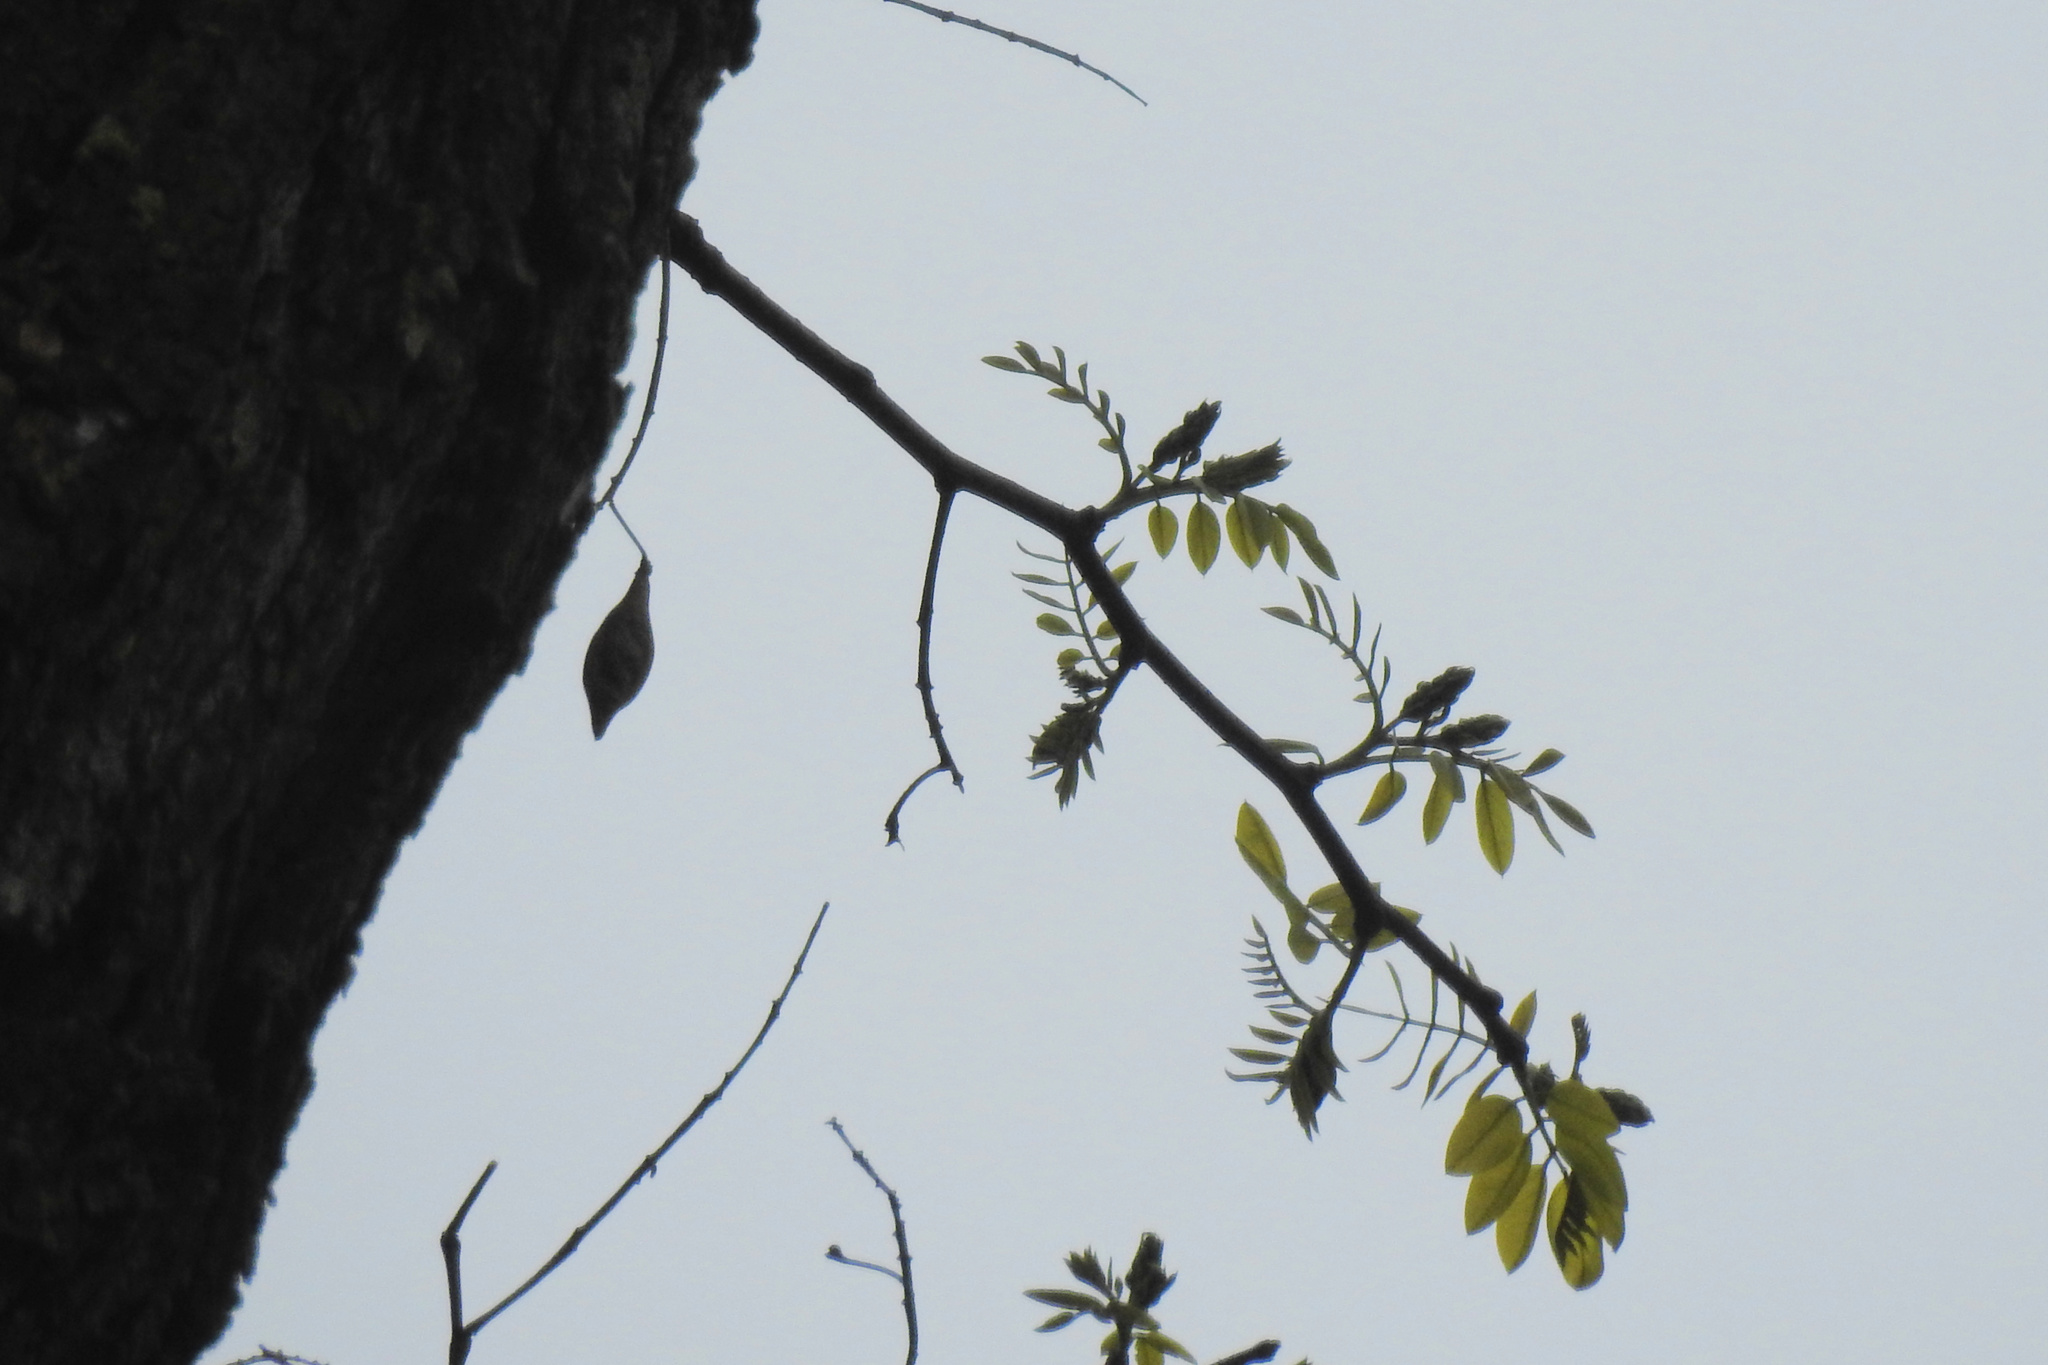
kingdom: Plantae
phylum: Tracheophyta
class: Magnoliopsida
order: Fabales
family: Fabaceae
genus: Gleditsia
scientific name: Gleditsia triacanthos
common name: Common honeylocust
